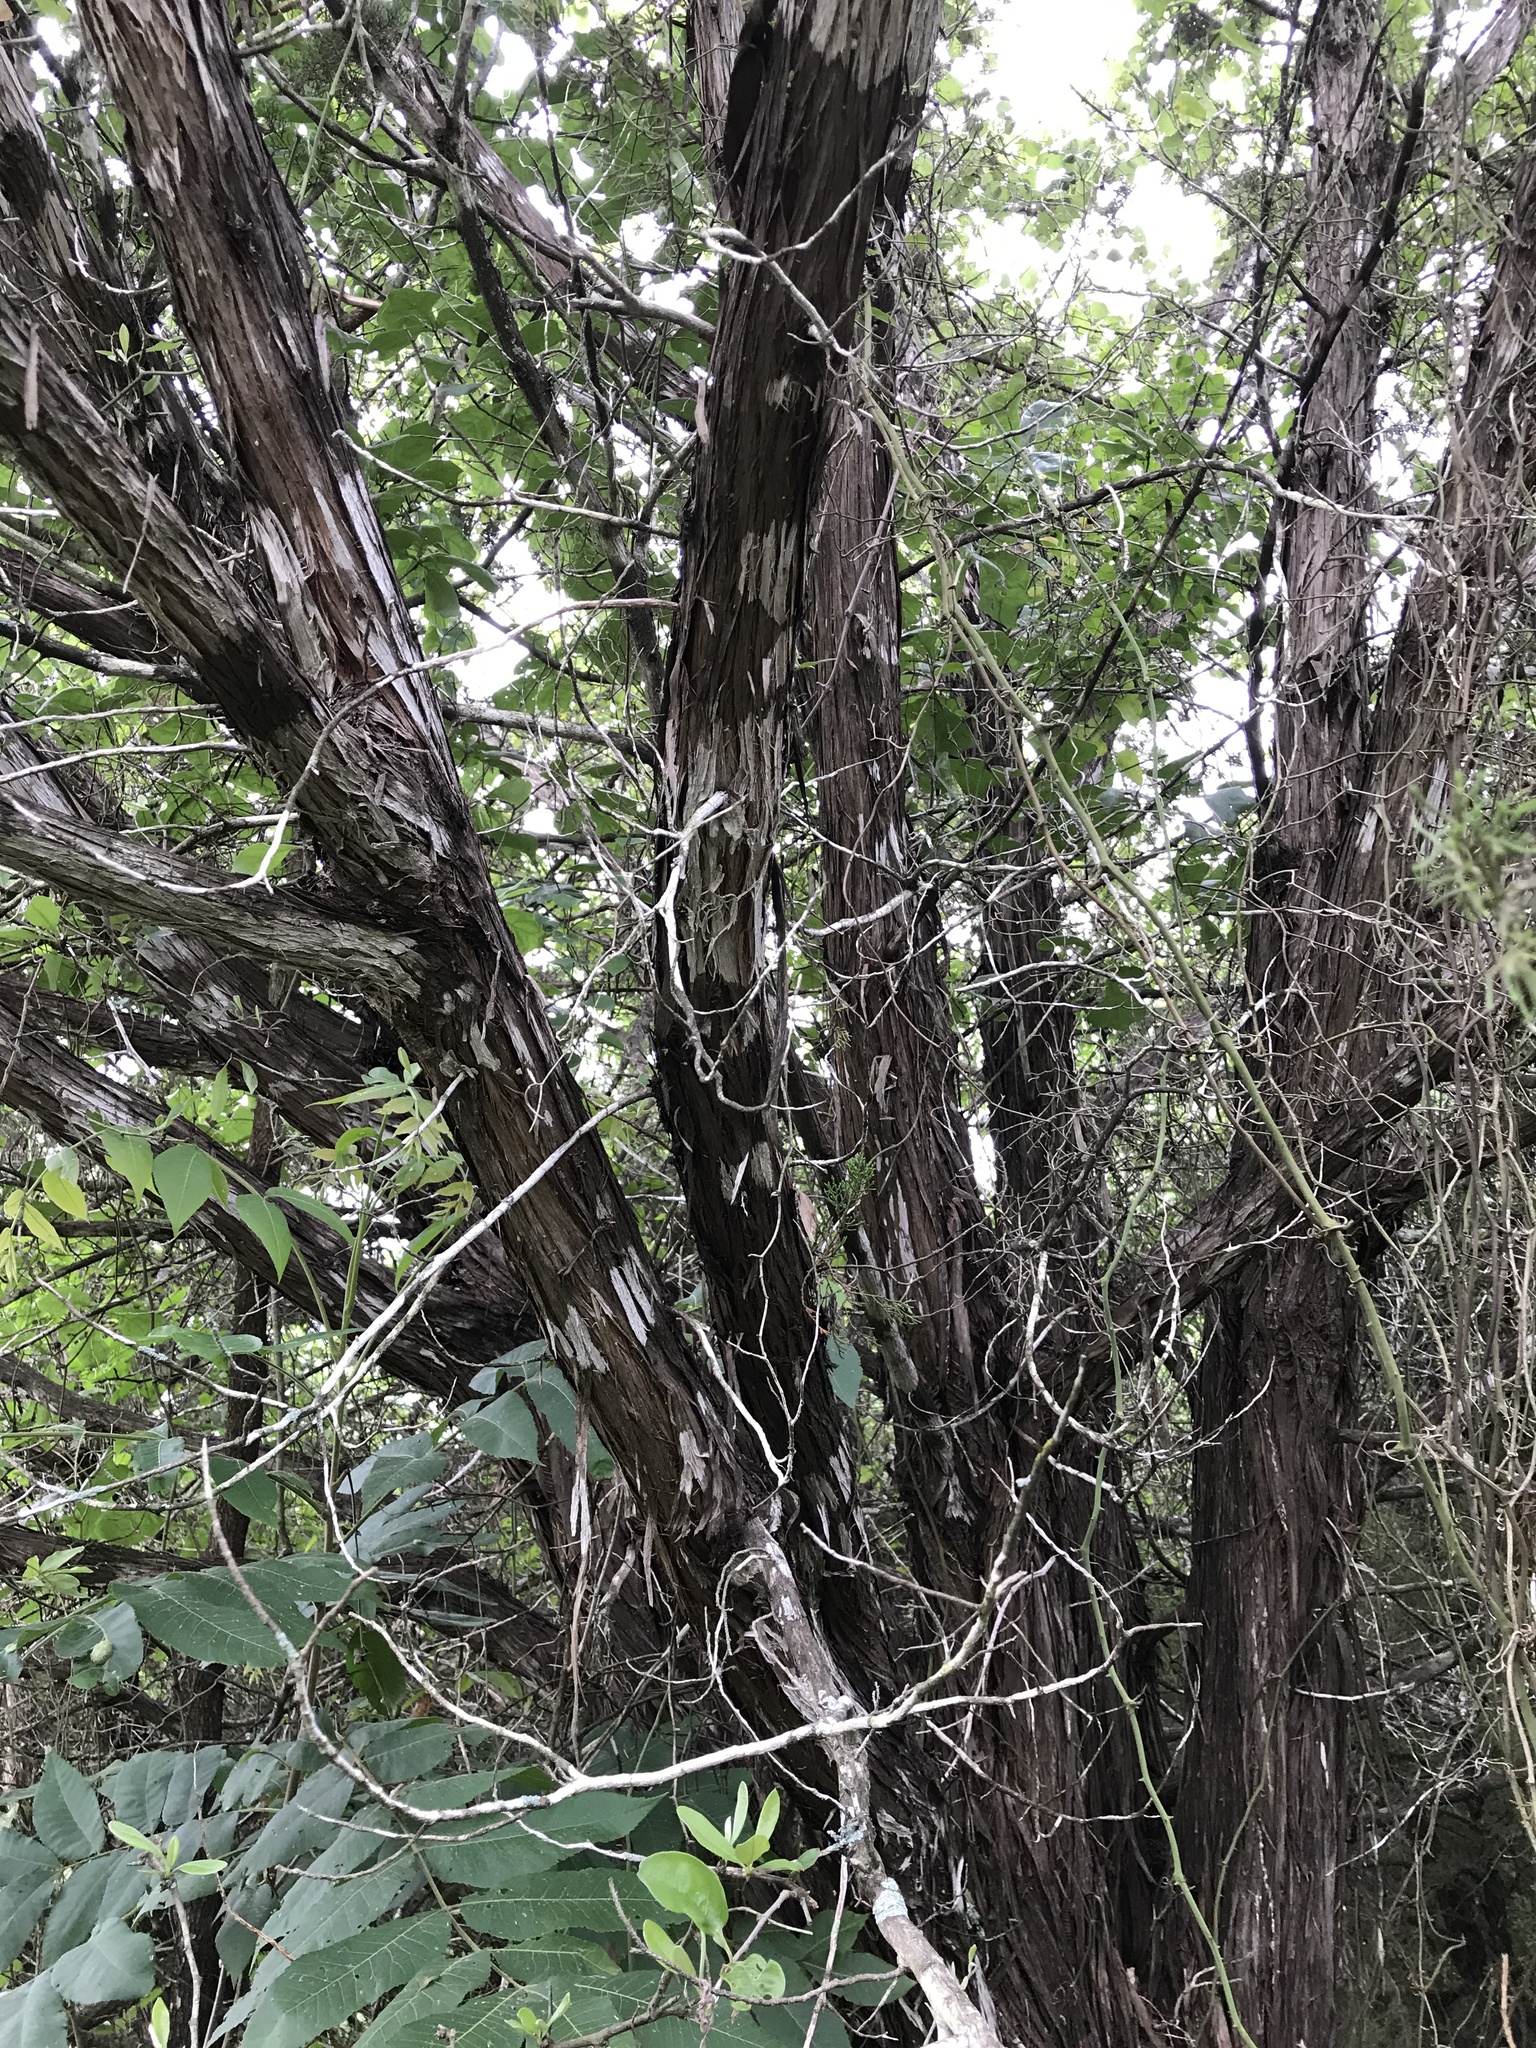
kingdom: Plantae
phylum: Tracheophyta
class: Pinopsida
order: Pinales
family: Cupressaceae
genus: Juniperus
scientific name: Juniperus ashei
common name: Mexican juniper
